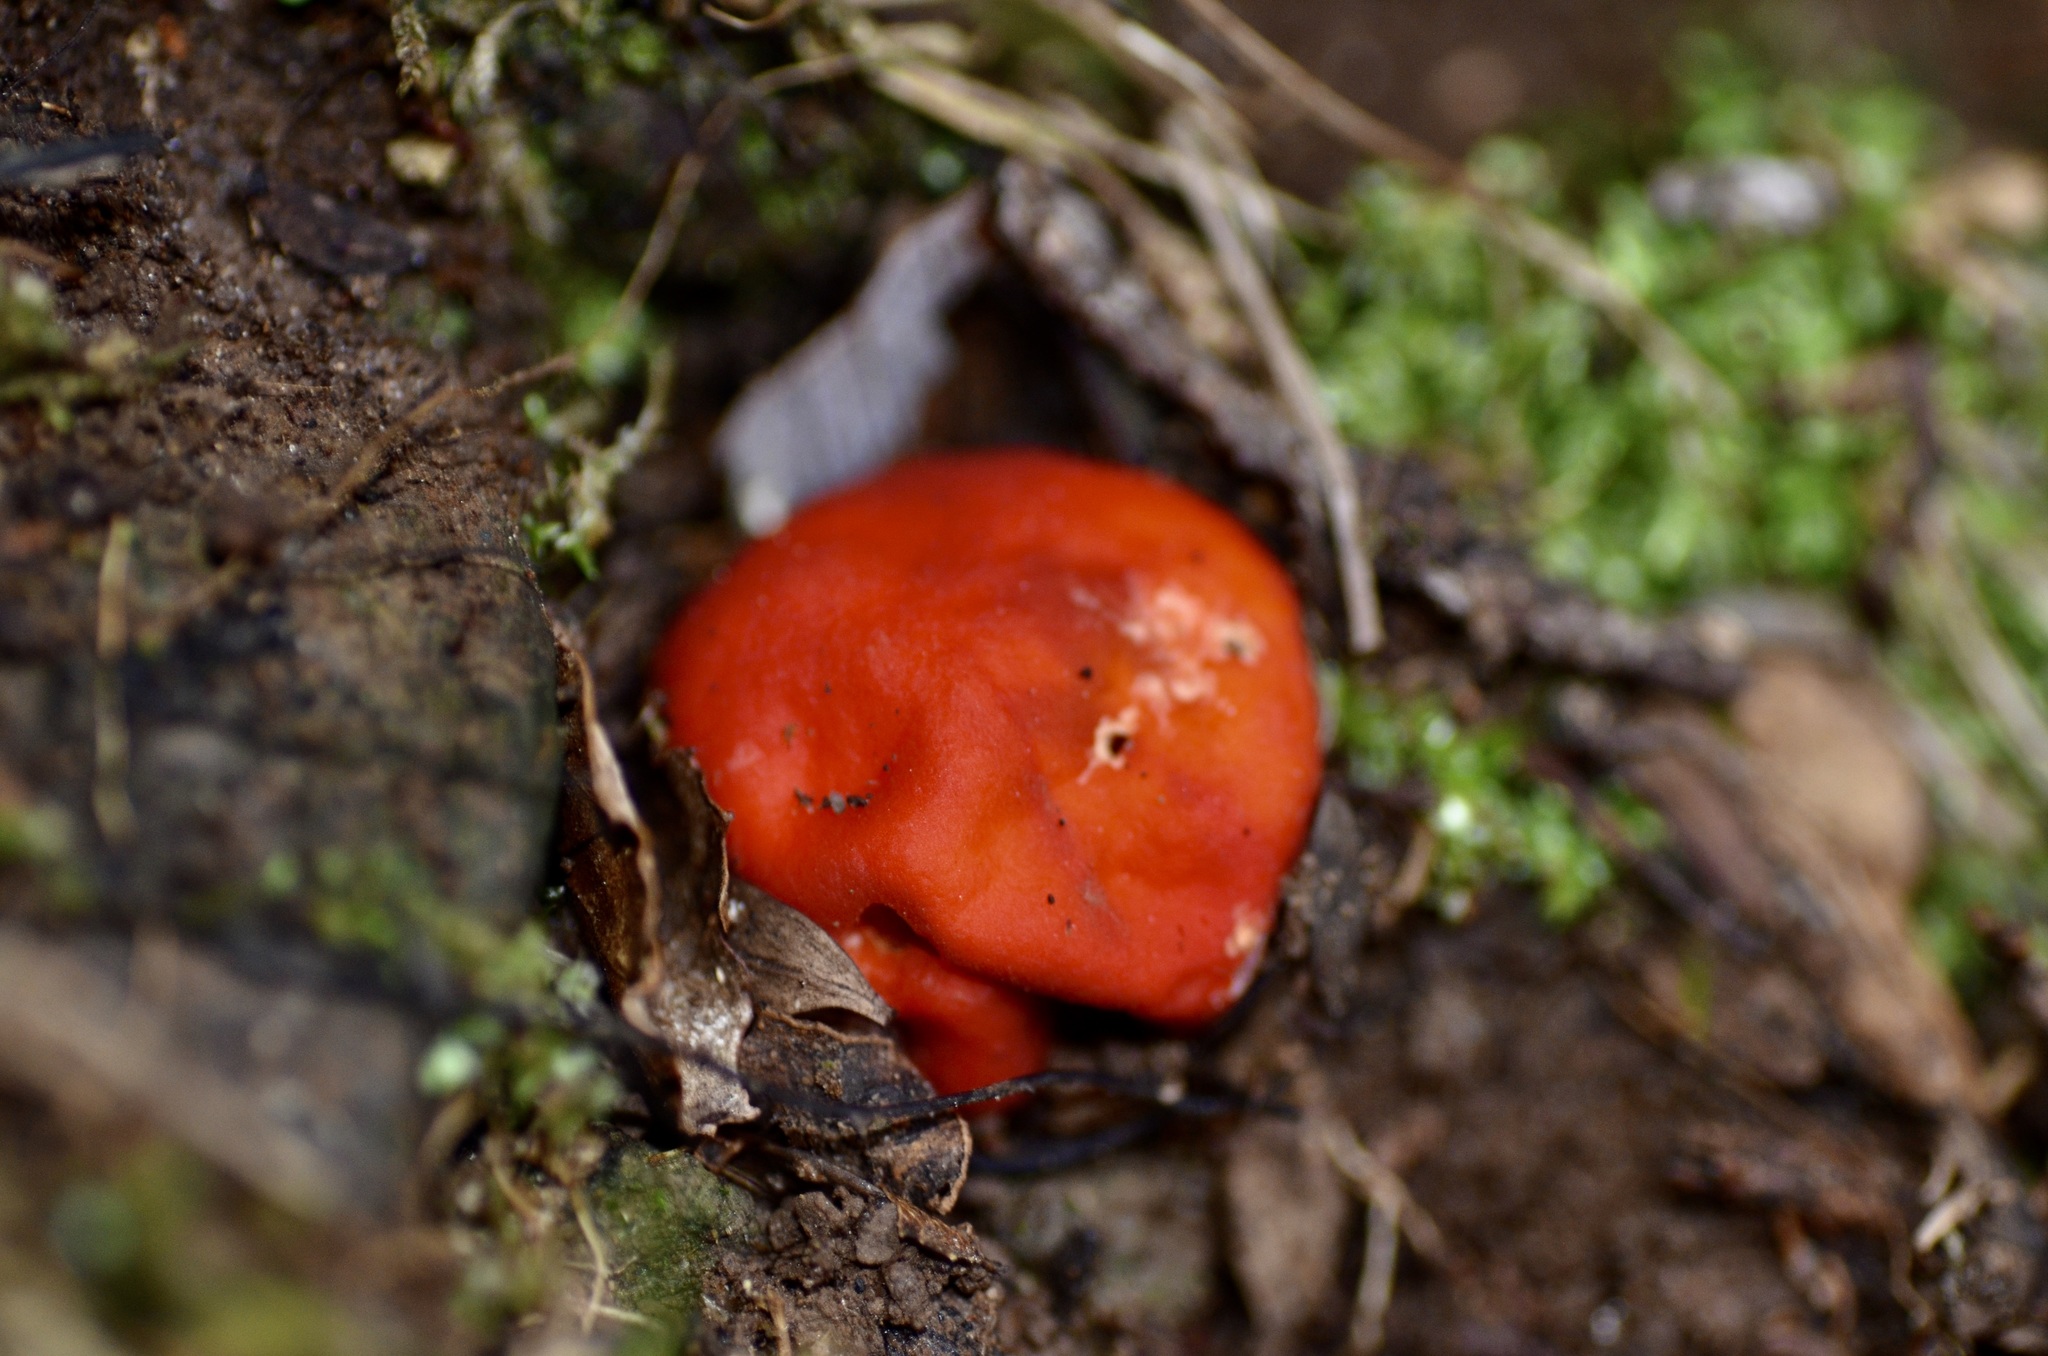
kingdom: Fungi
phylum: Ascomycota
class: Pezizomycetes
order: Pezizales
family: Pyronemataceae
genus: Paurocotylis
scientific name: Paurocotylis pila
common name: Scarlet berry truffle
